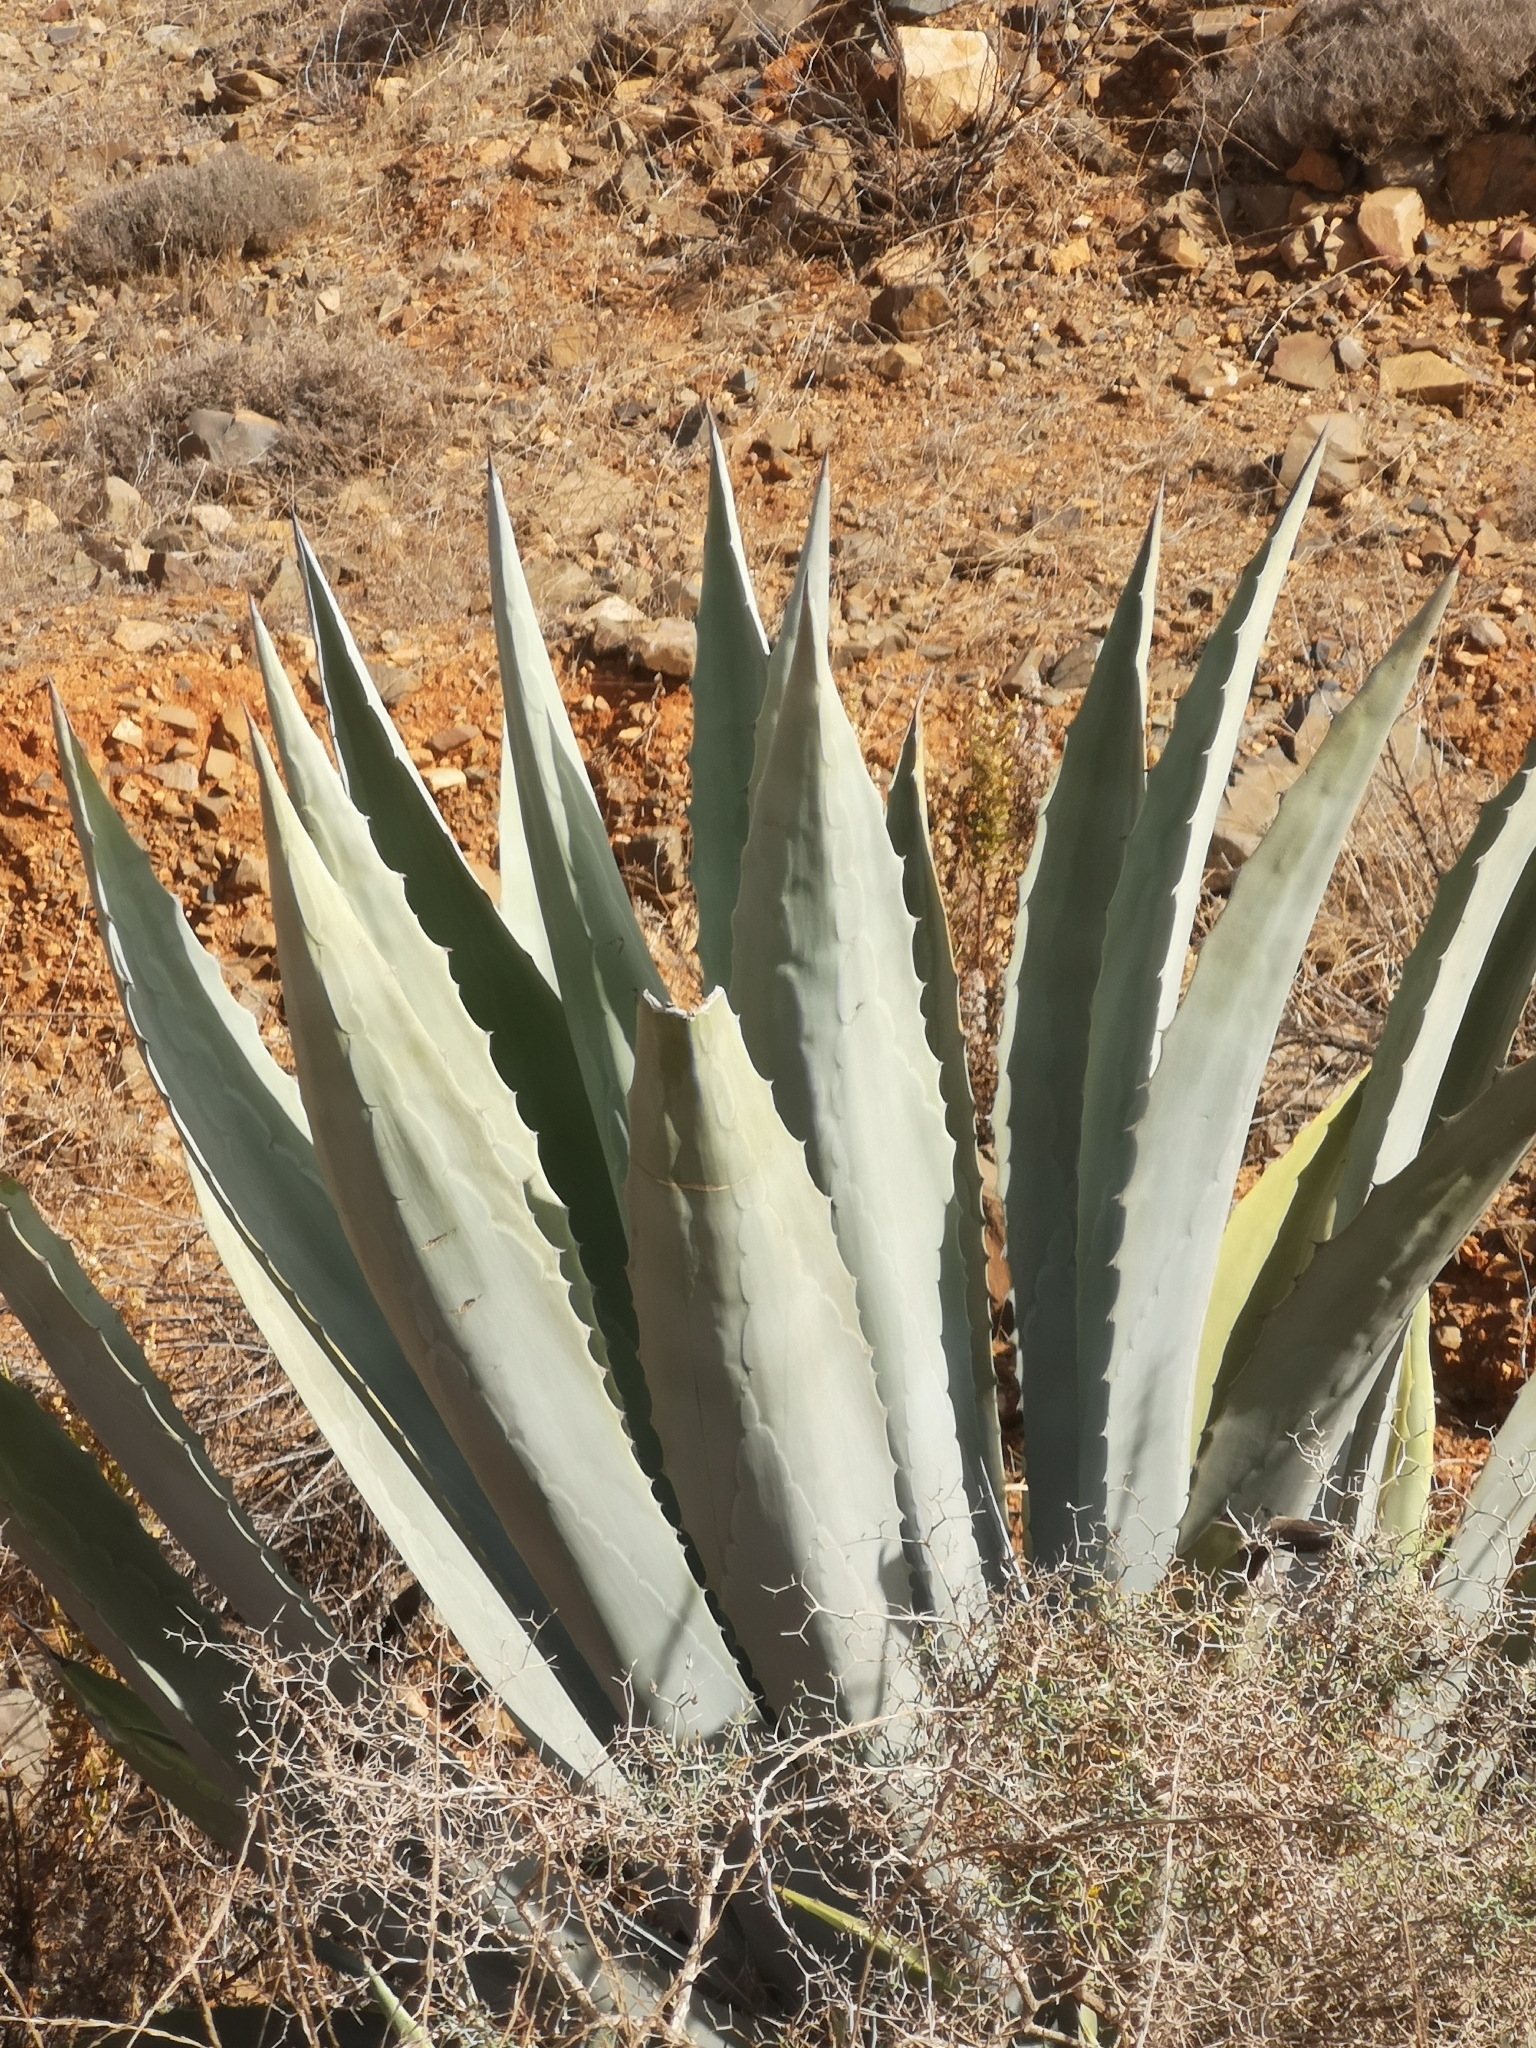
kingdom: Plantae
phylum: Tracheophyta
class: Liliopsida
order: Asparagales
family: Asparagaceae
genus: Agave
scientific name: Agave americana
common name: Centuryplant
